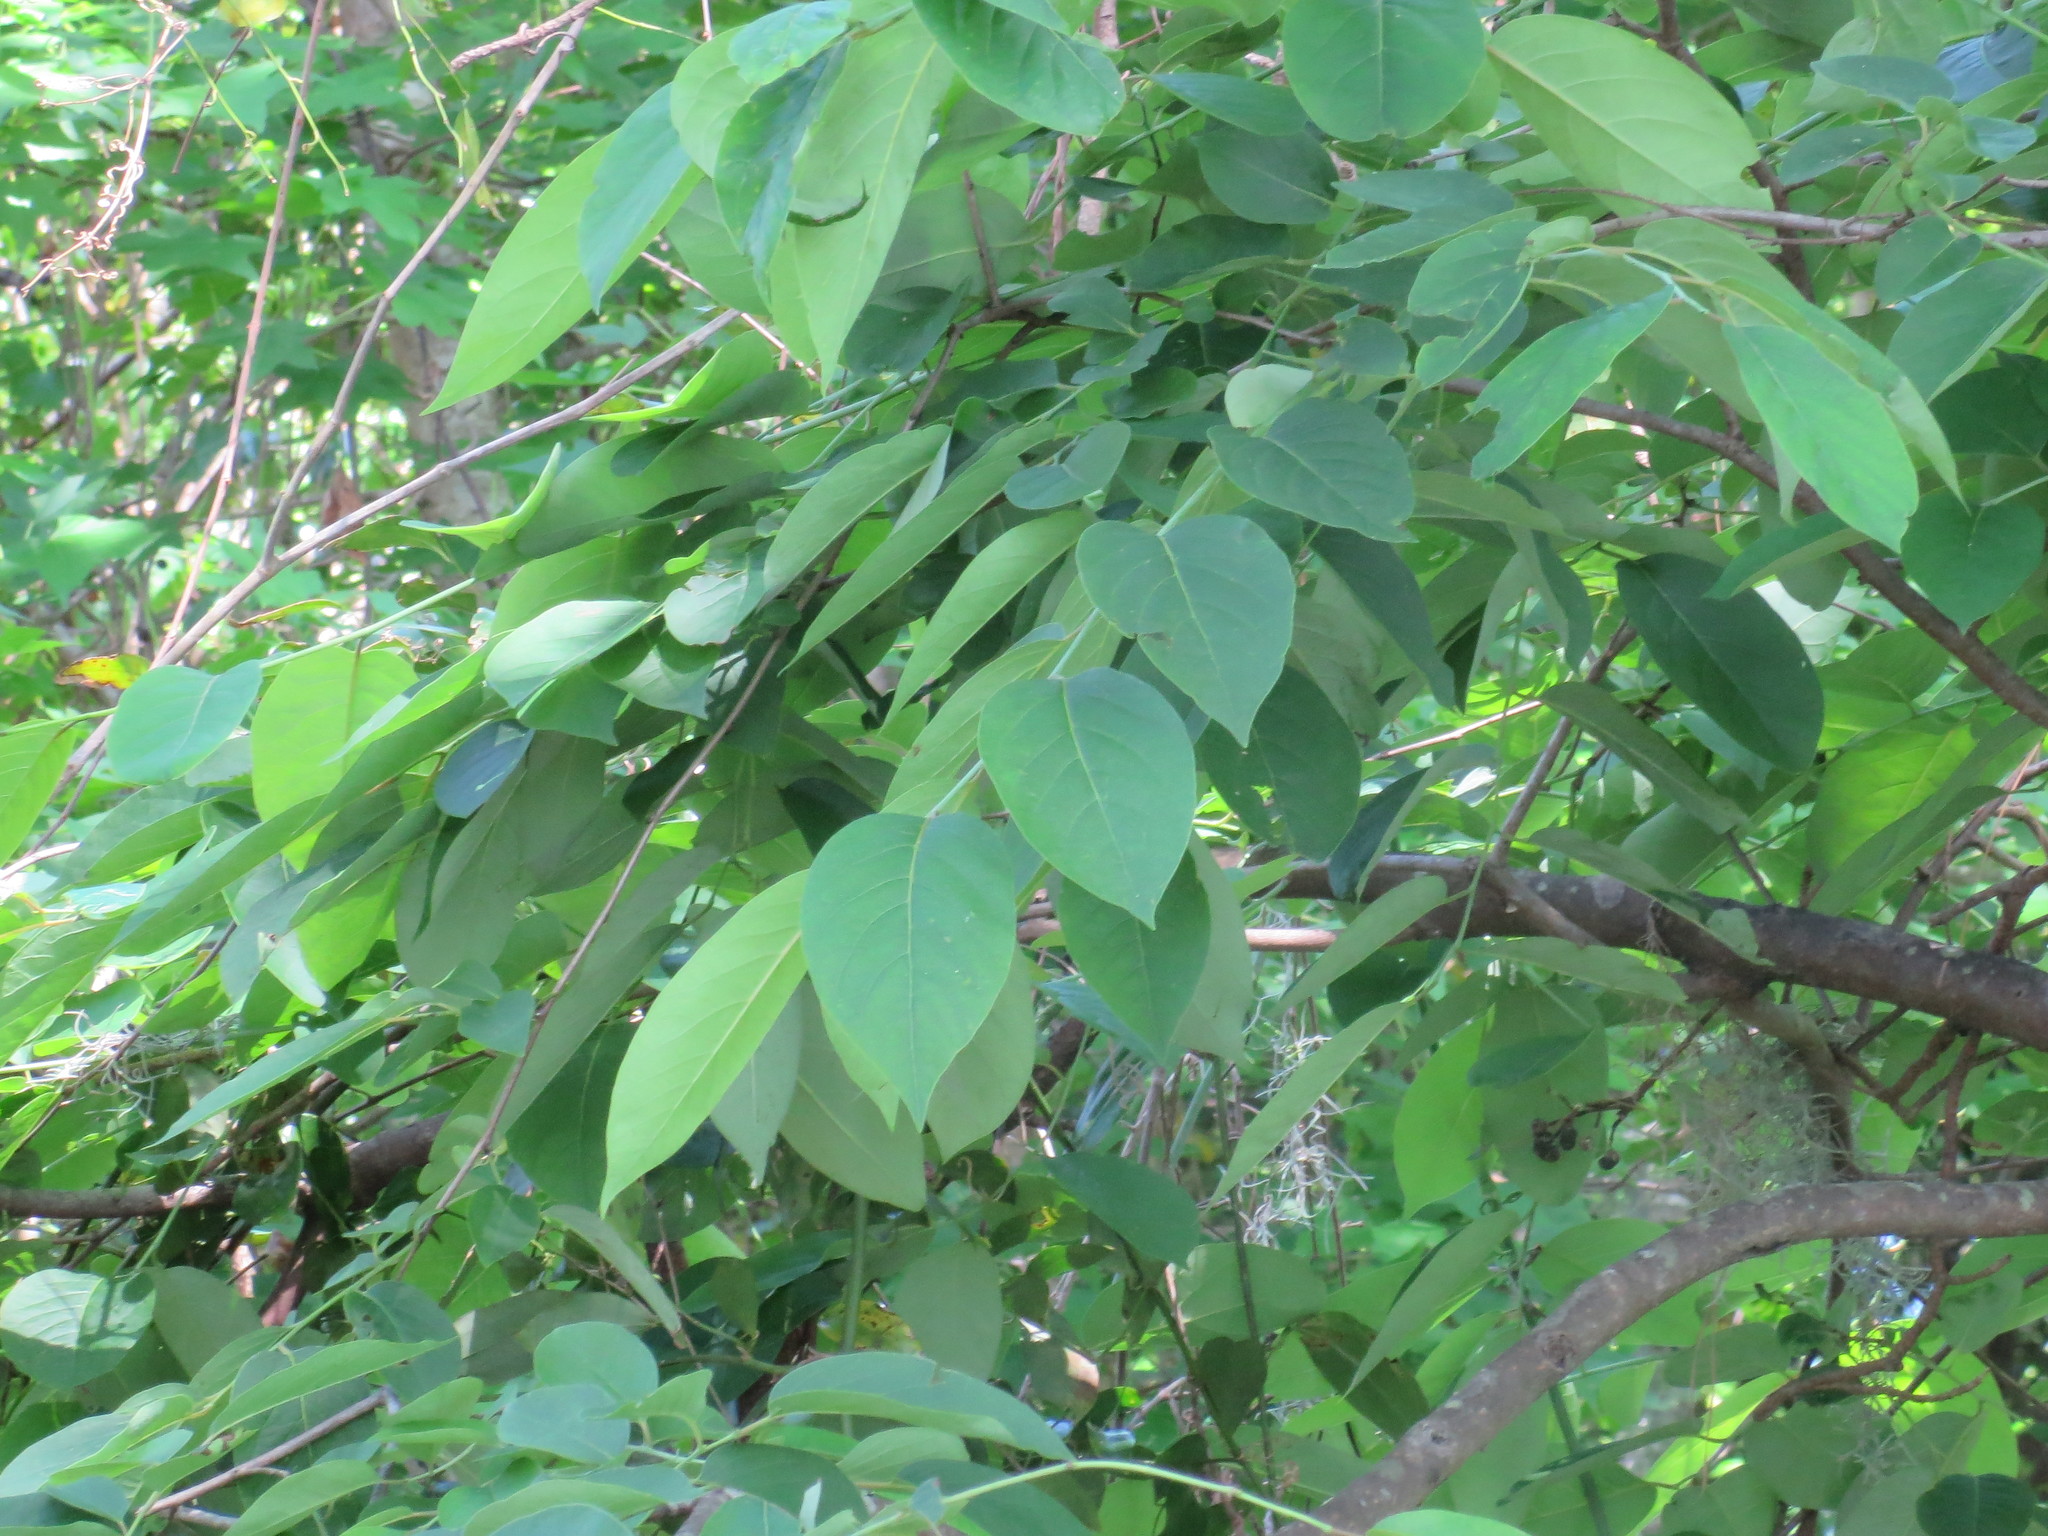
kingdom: Plantae
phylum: Tracheophyta
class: Magnoliopsida
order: Ericales
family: Ebenaceae
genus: Diospyros
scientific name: Diospyros virginiana
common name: Persimmon
